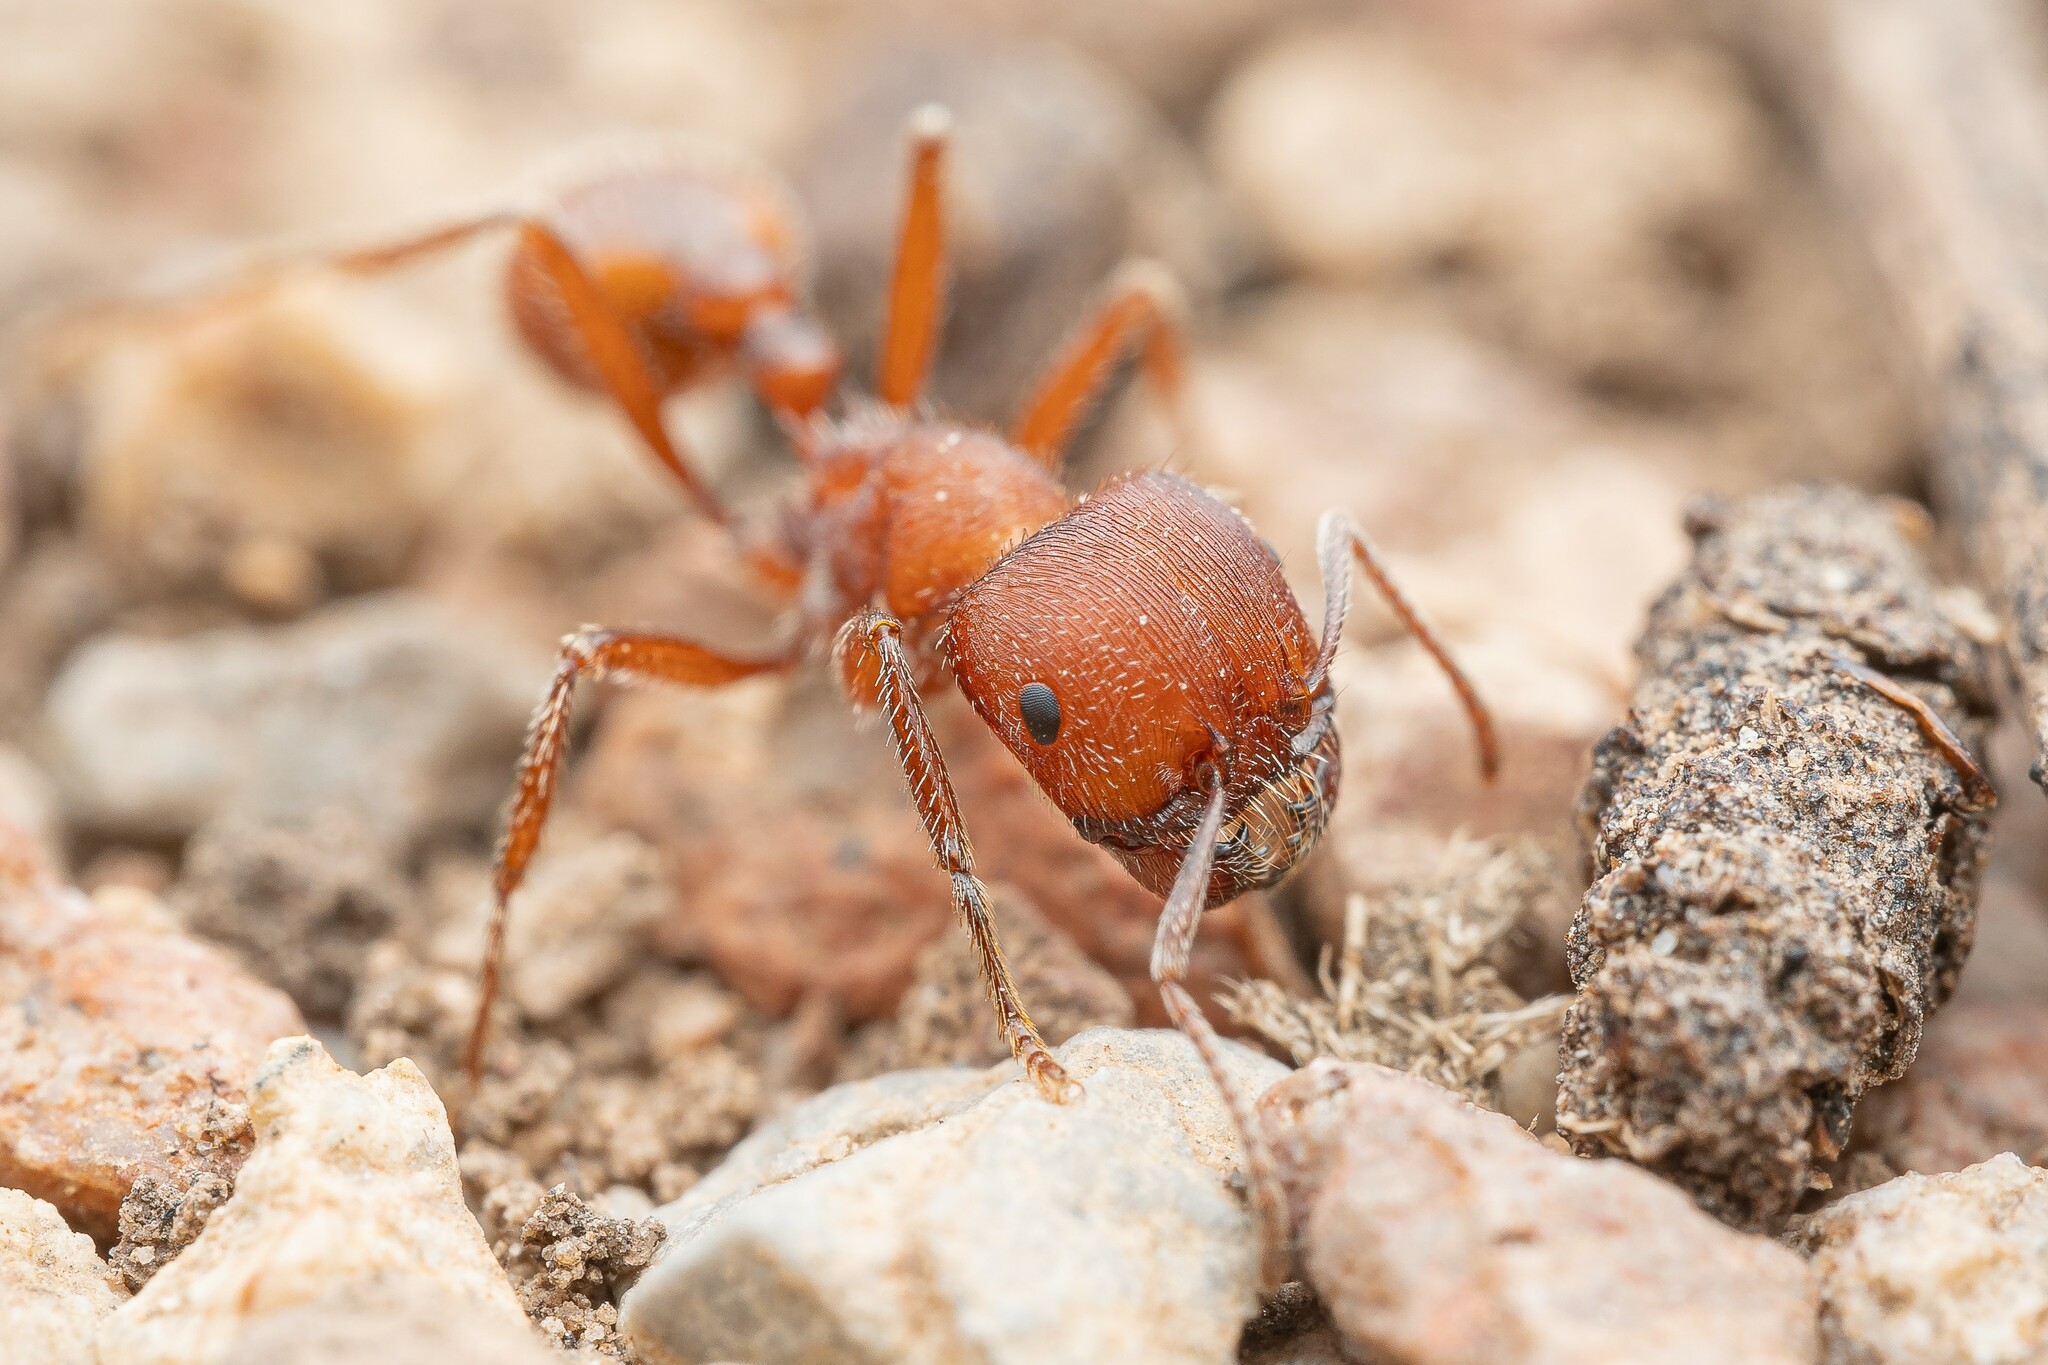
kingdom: Animalia
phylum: Arthropoda
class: Insecta
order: Hymenoptera
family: Formicidae
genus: Pogonomyrmex
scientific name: Pogonomyrmex occidentalis
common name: Western harvester ant
